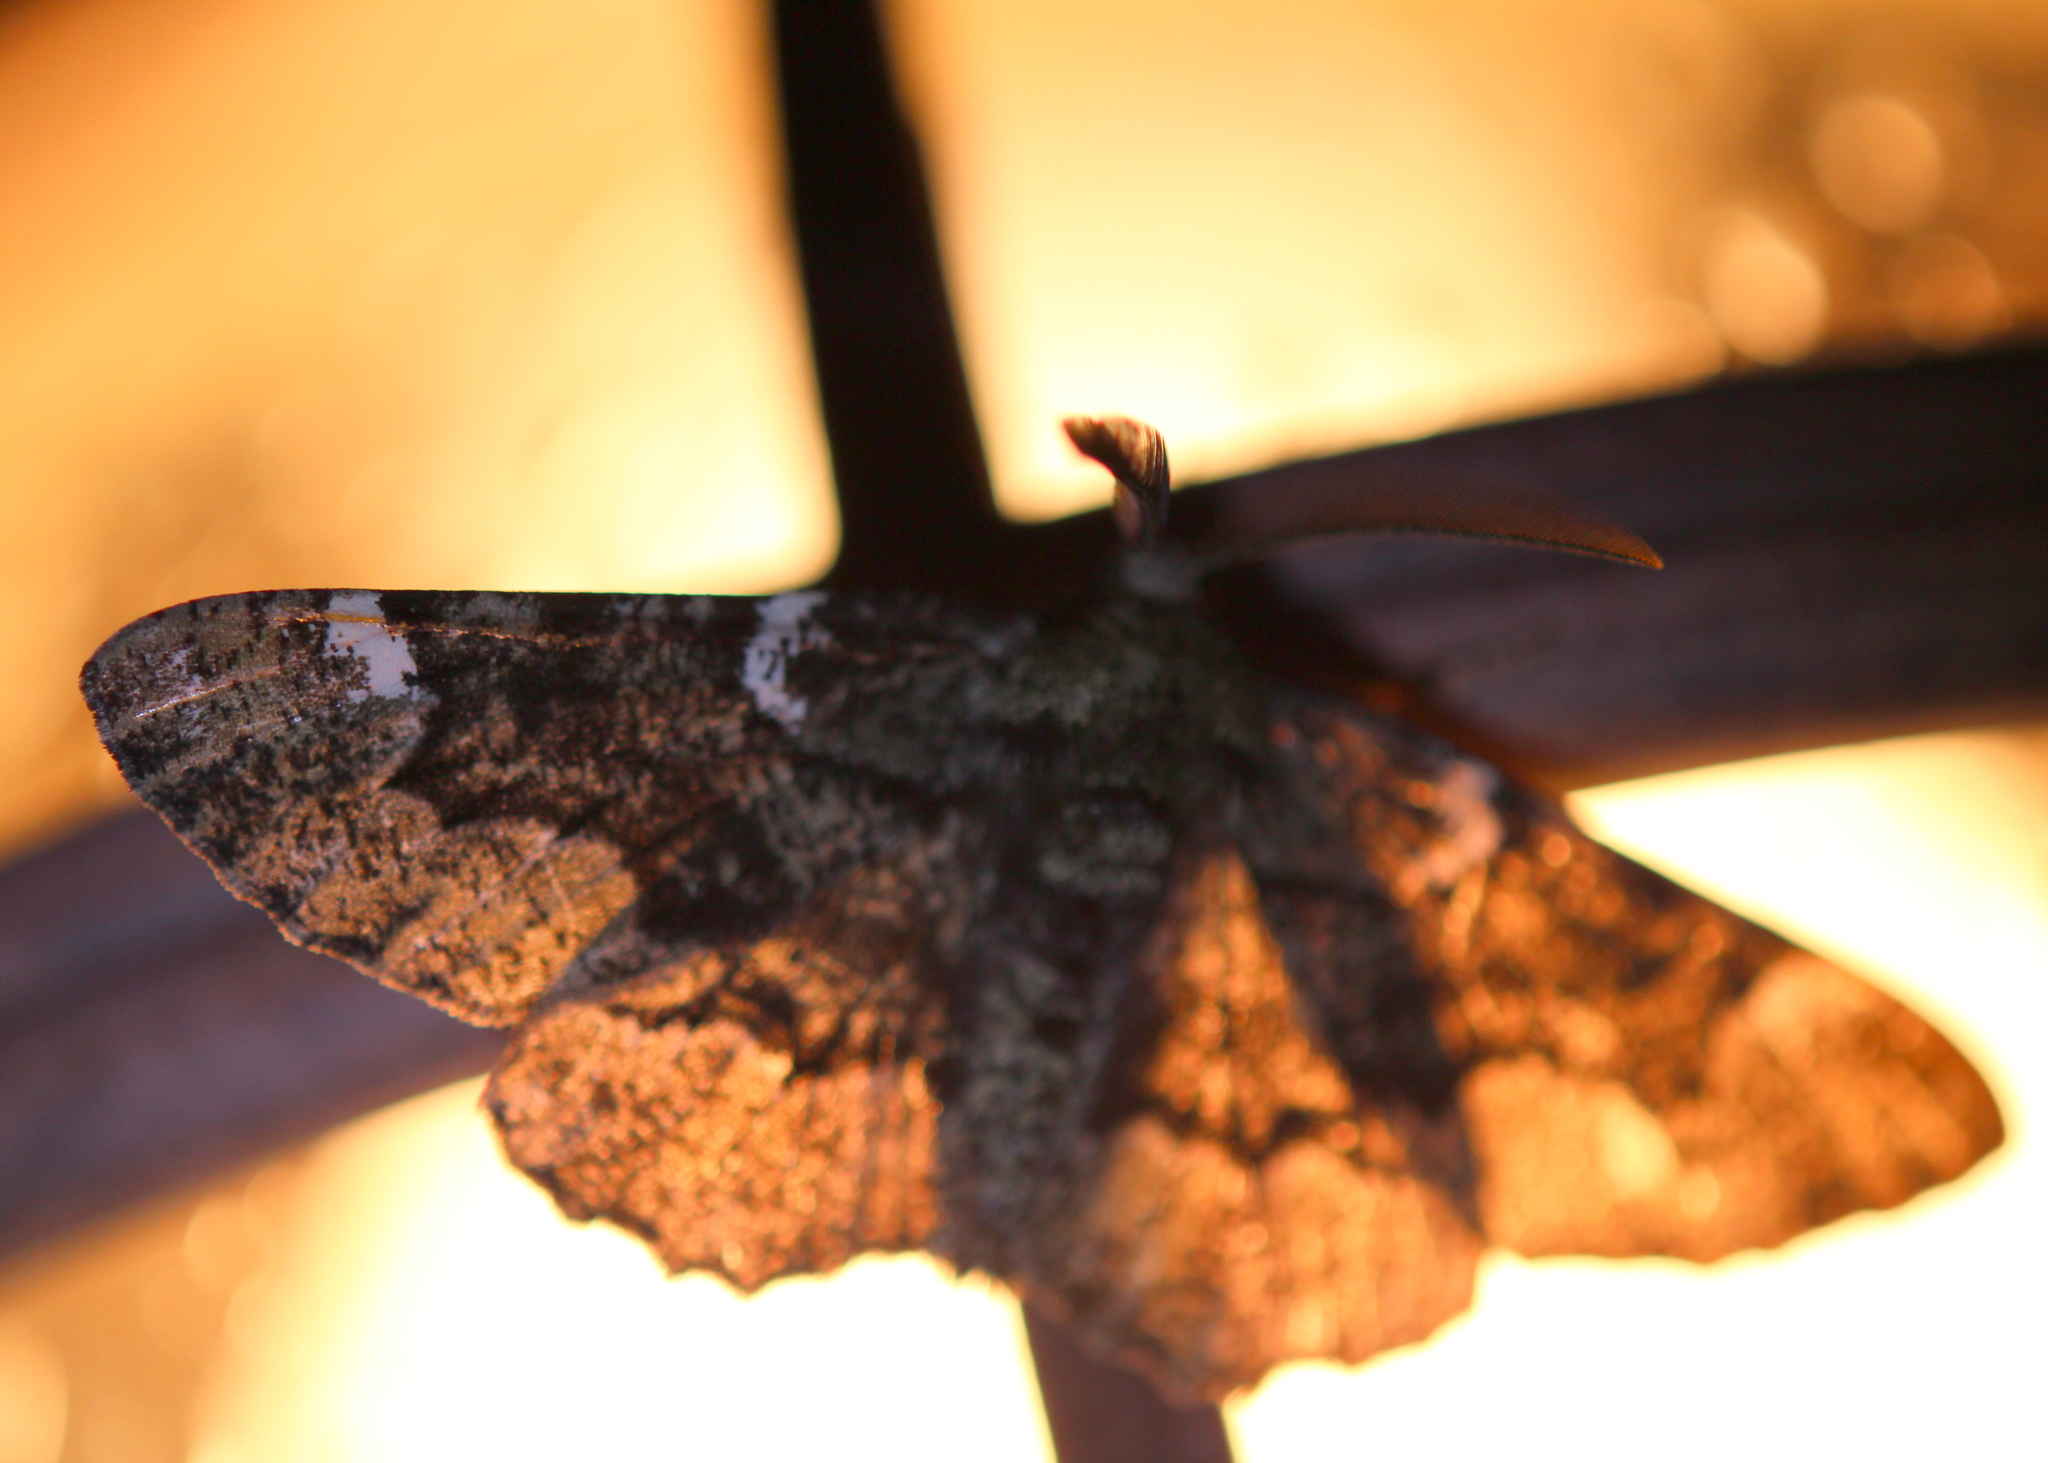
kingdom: Animalia
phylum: Arthropoda
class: Insecta
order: Lepidoptera
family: Geometridae
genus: Phaeoura
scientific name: Phaeoura quernaria
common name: Oak beauty
